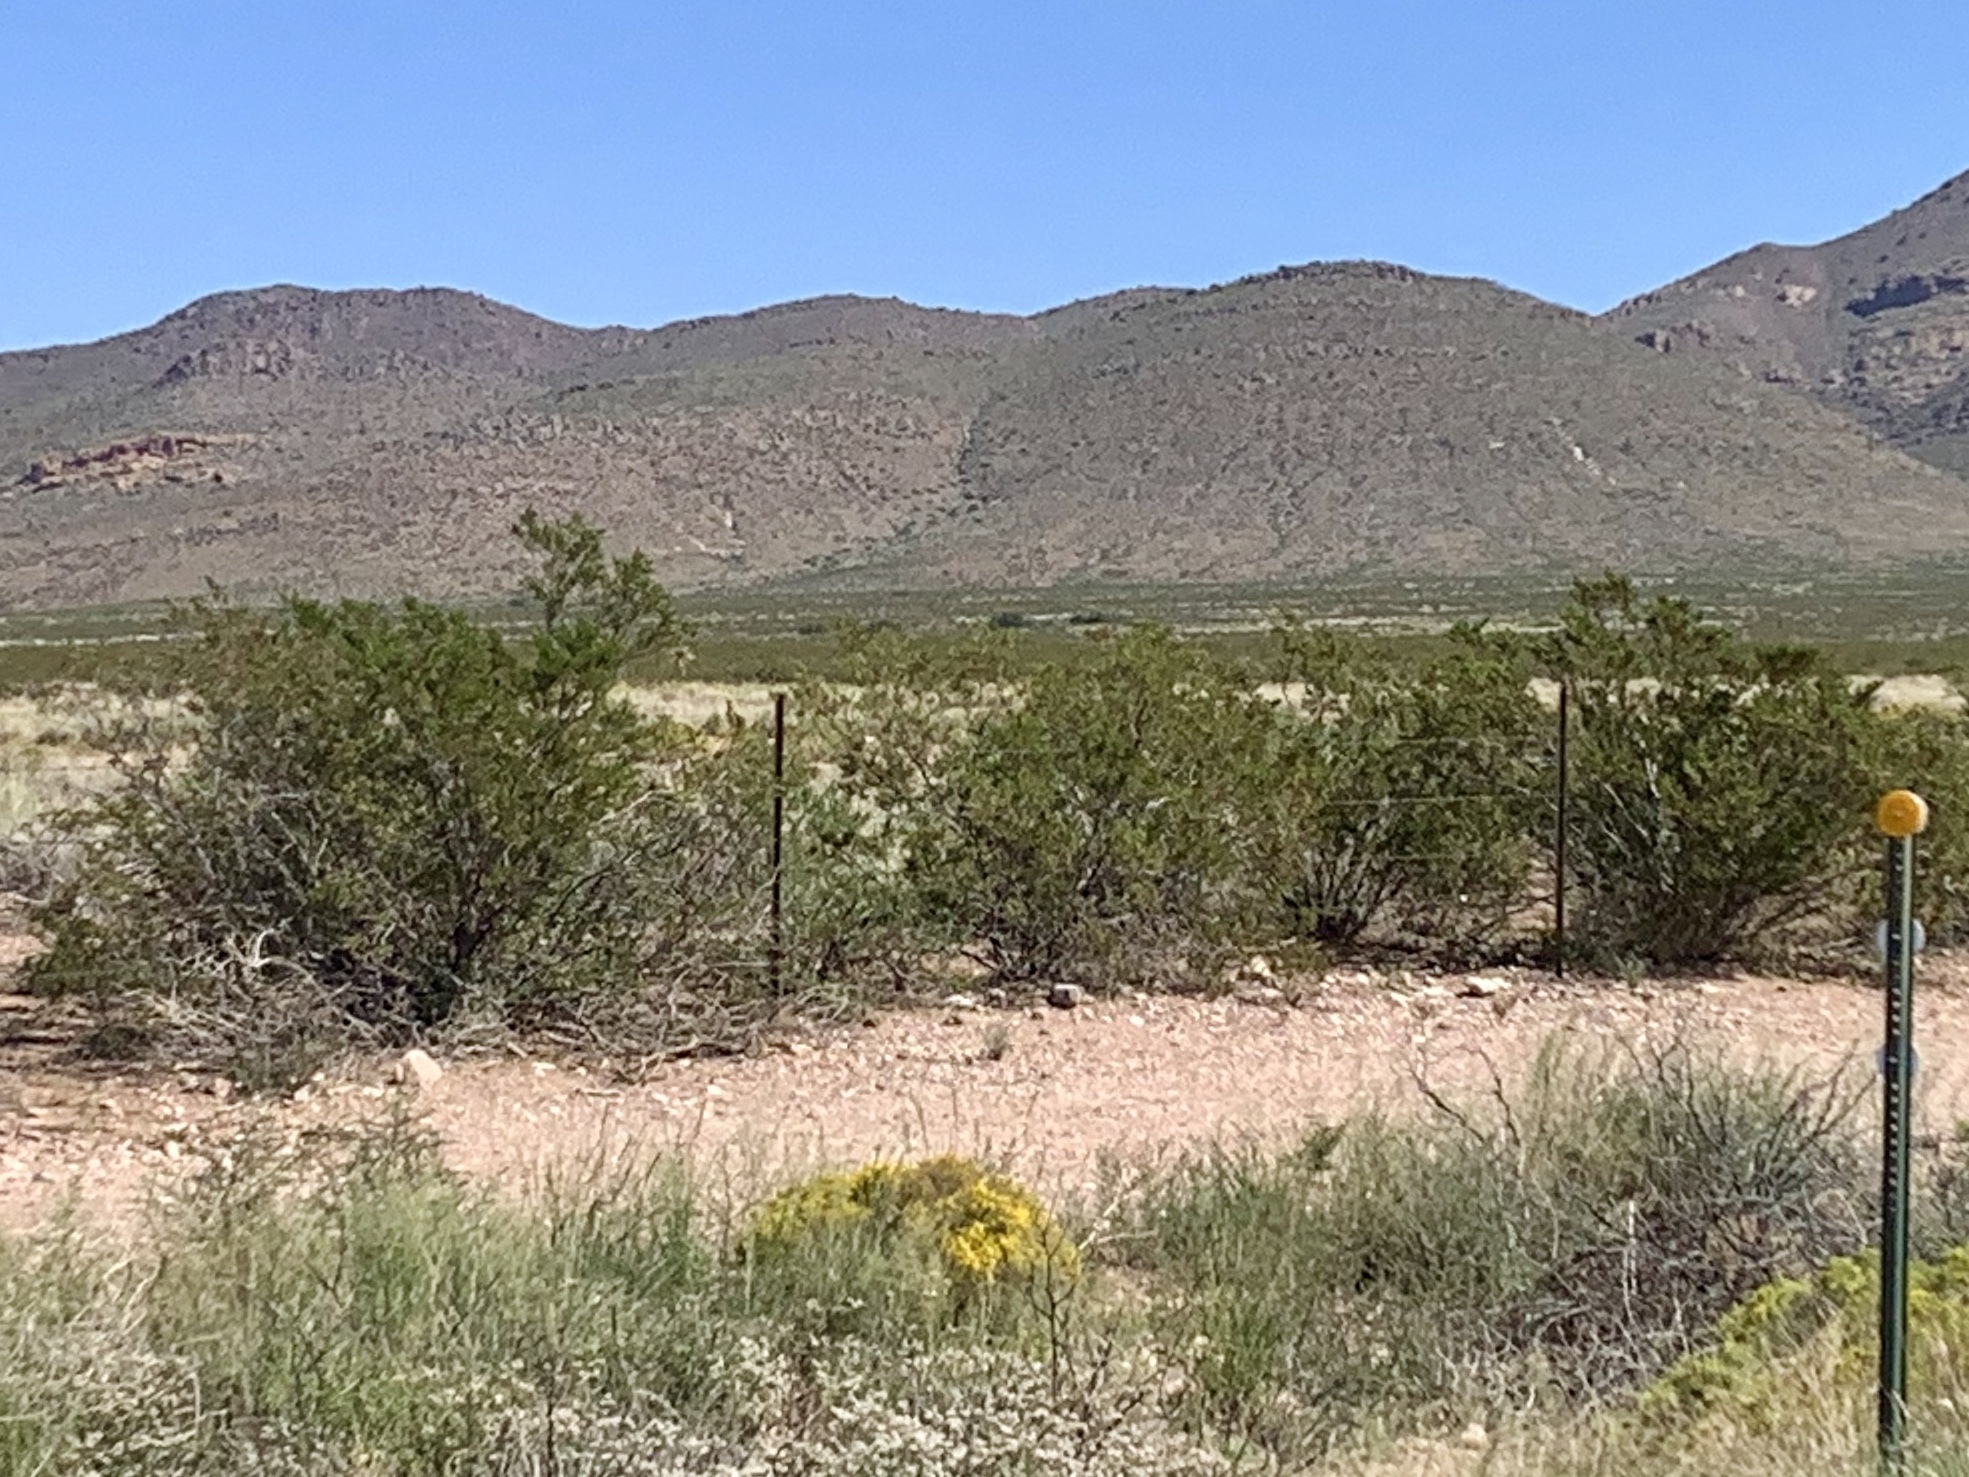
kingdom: Plantae
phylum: Tracheophyta
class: Magnoliopsida
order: Zygophyllales
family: Zygophyllaceae
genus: Larrea
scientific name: Larrea tridentata
